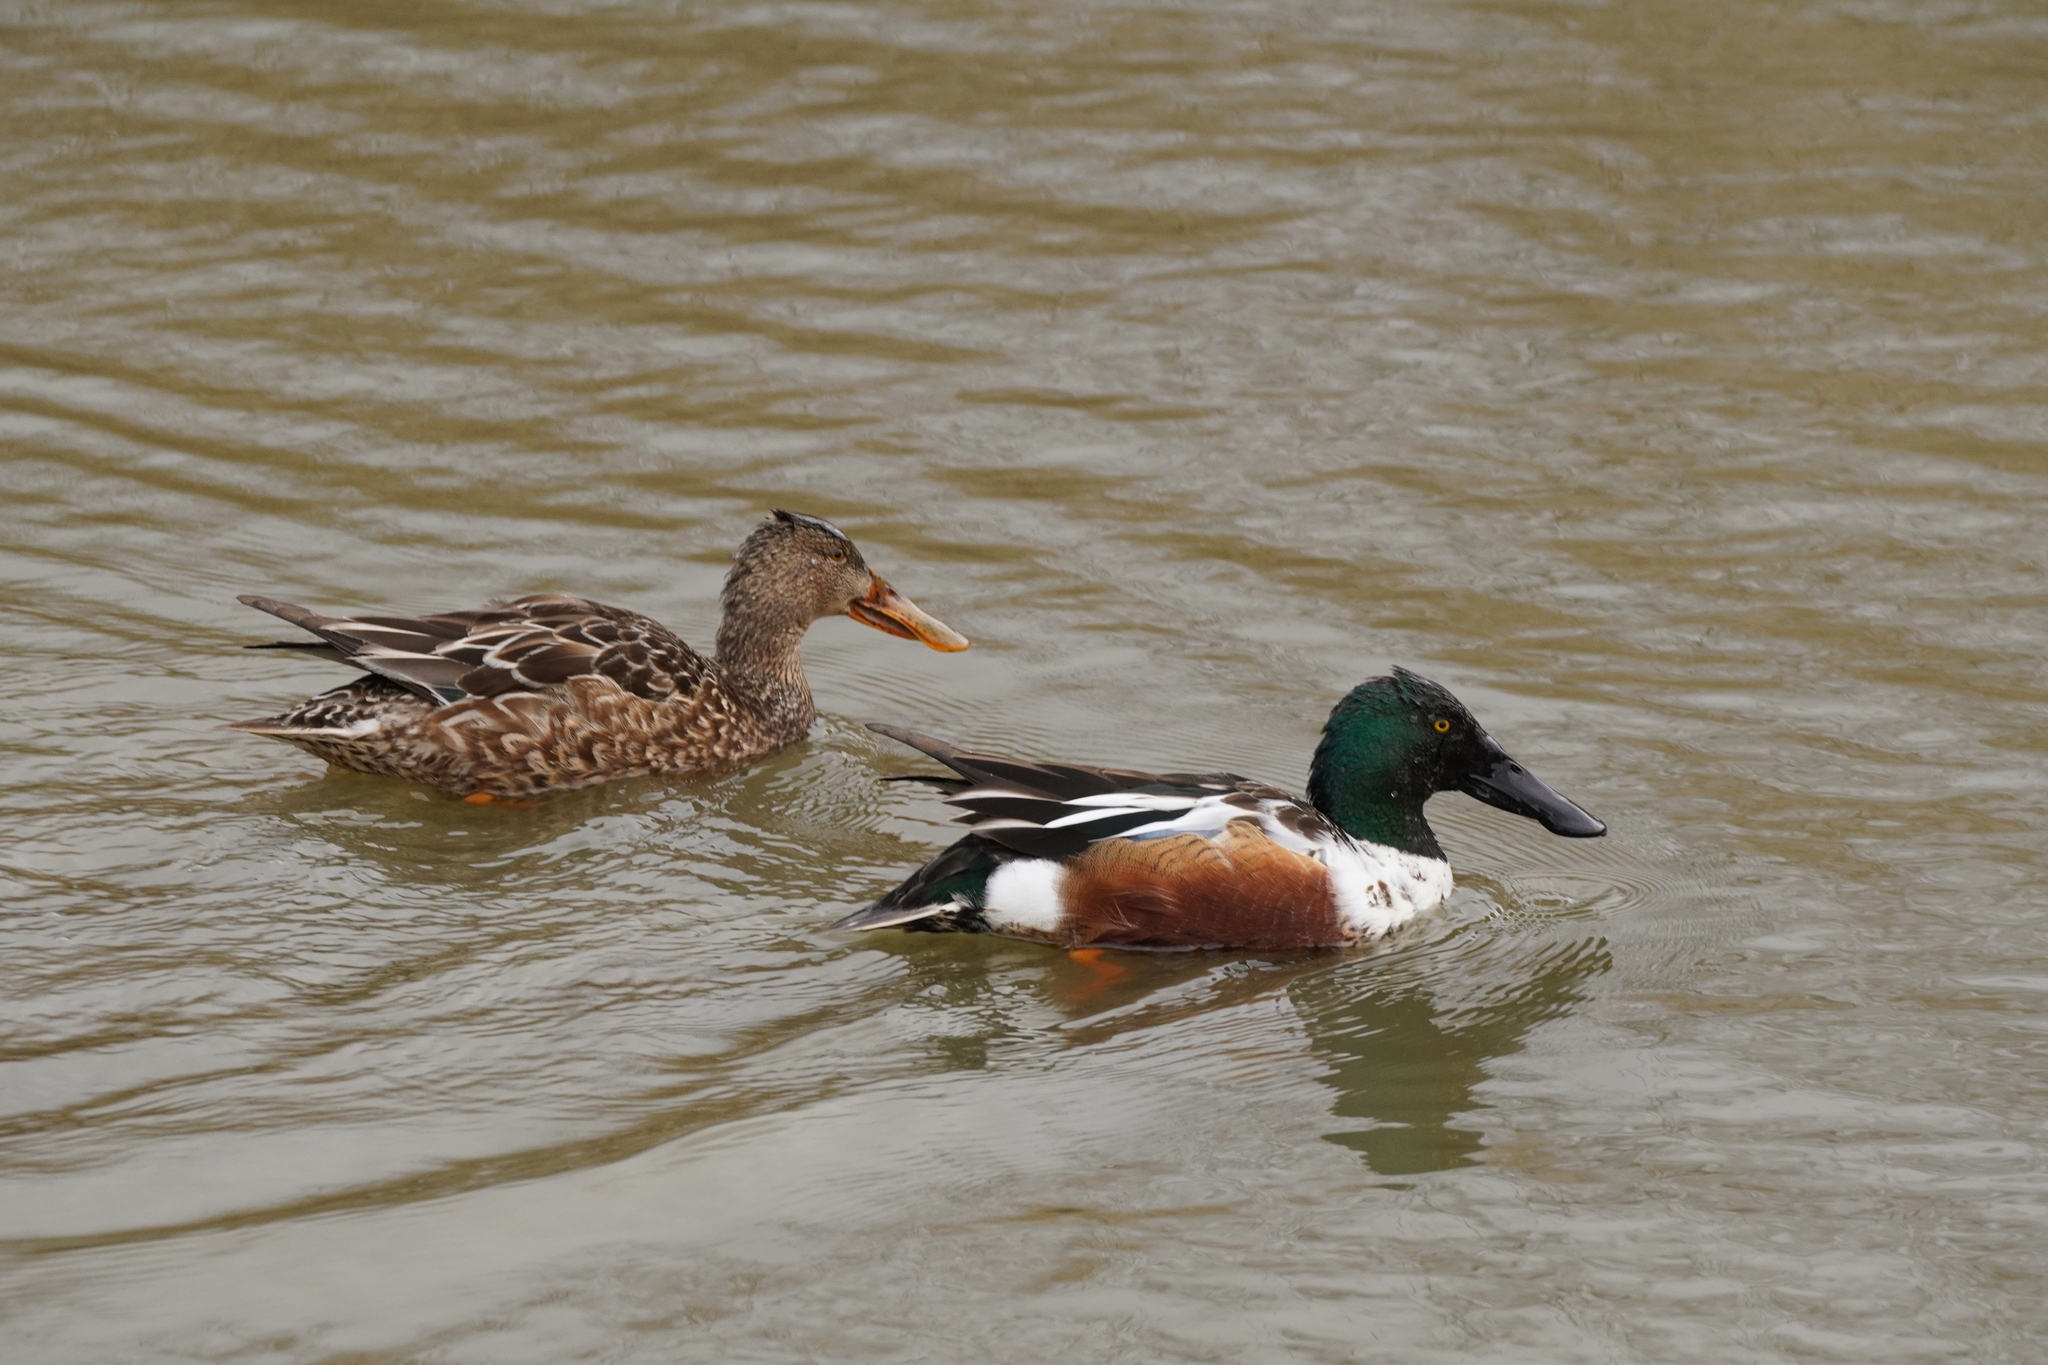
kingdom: Animalia
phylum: Chordata
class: Aves
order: Anseriformes
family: Anatidae
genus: Spatula
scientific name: Spatula clypeata
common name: Northern shoveler
